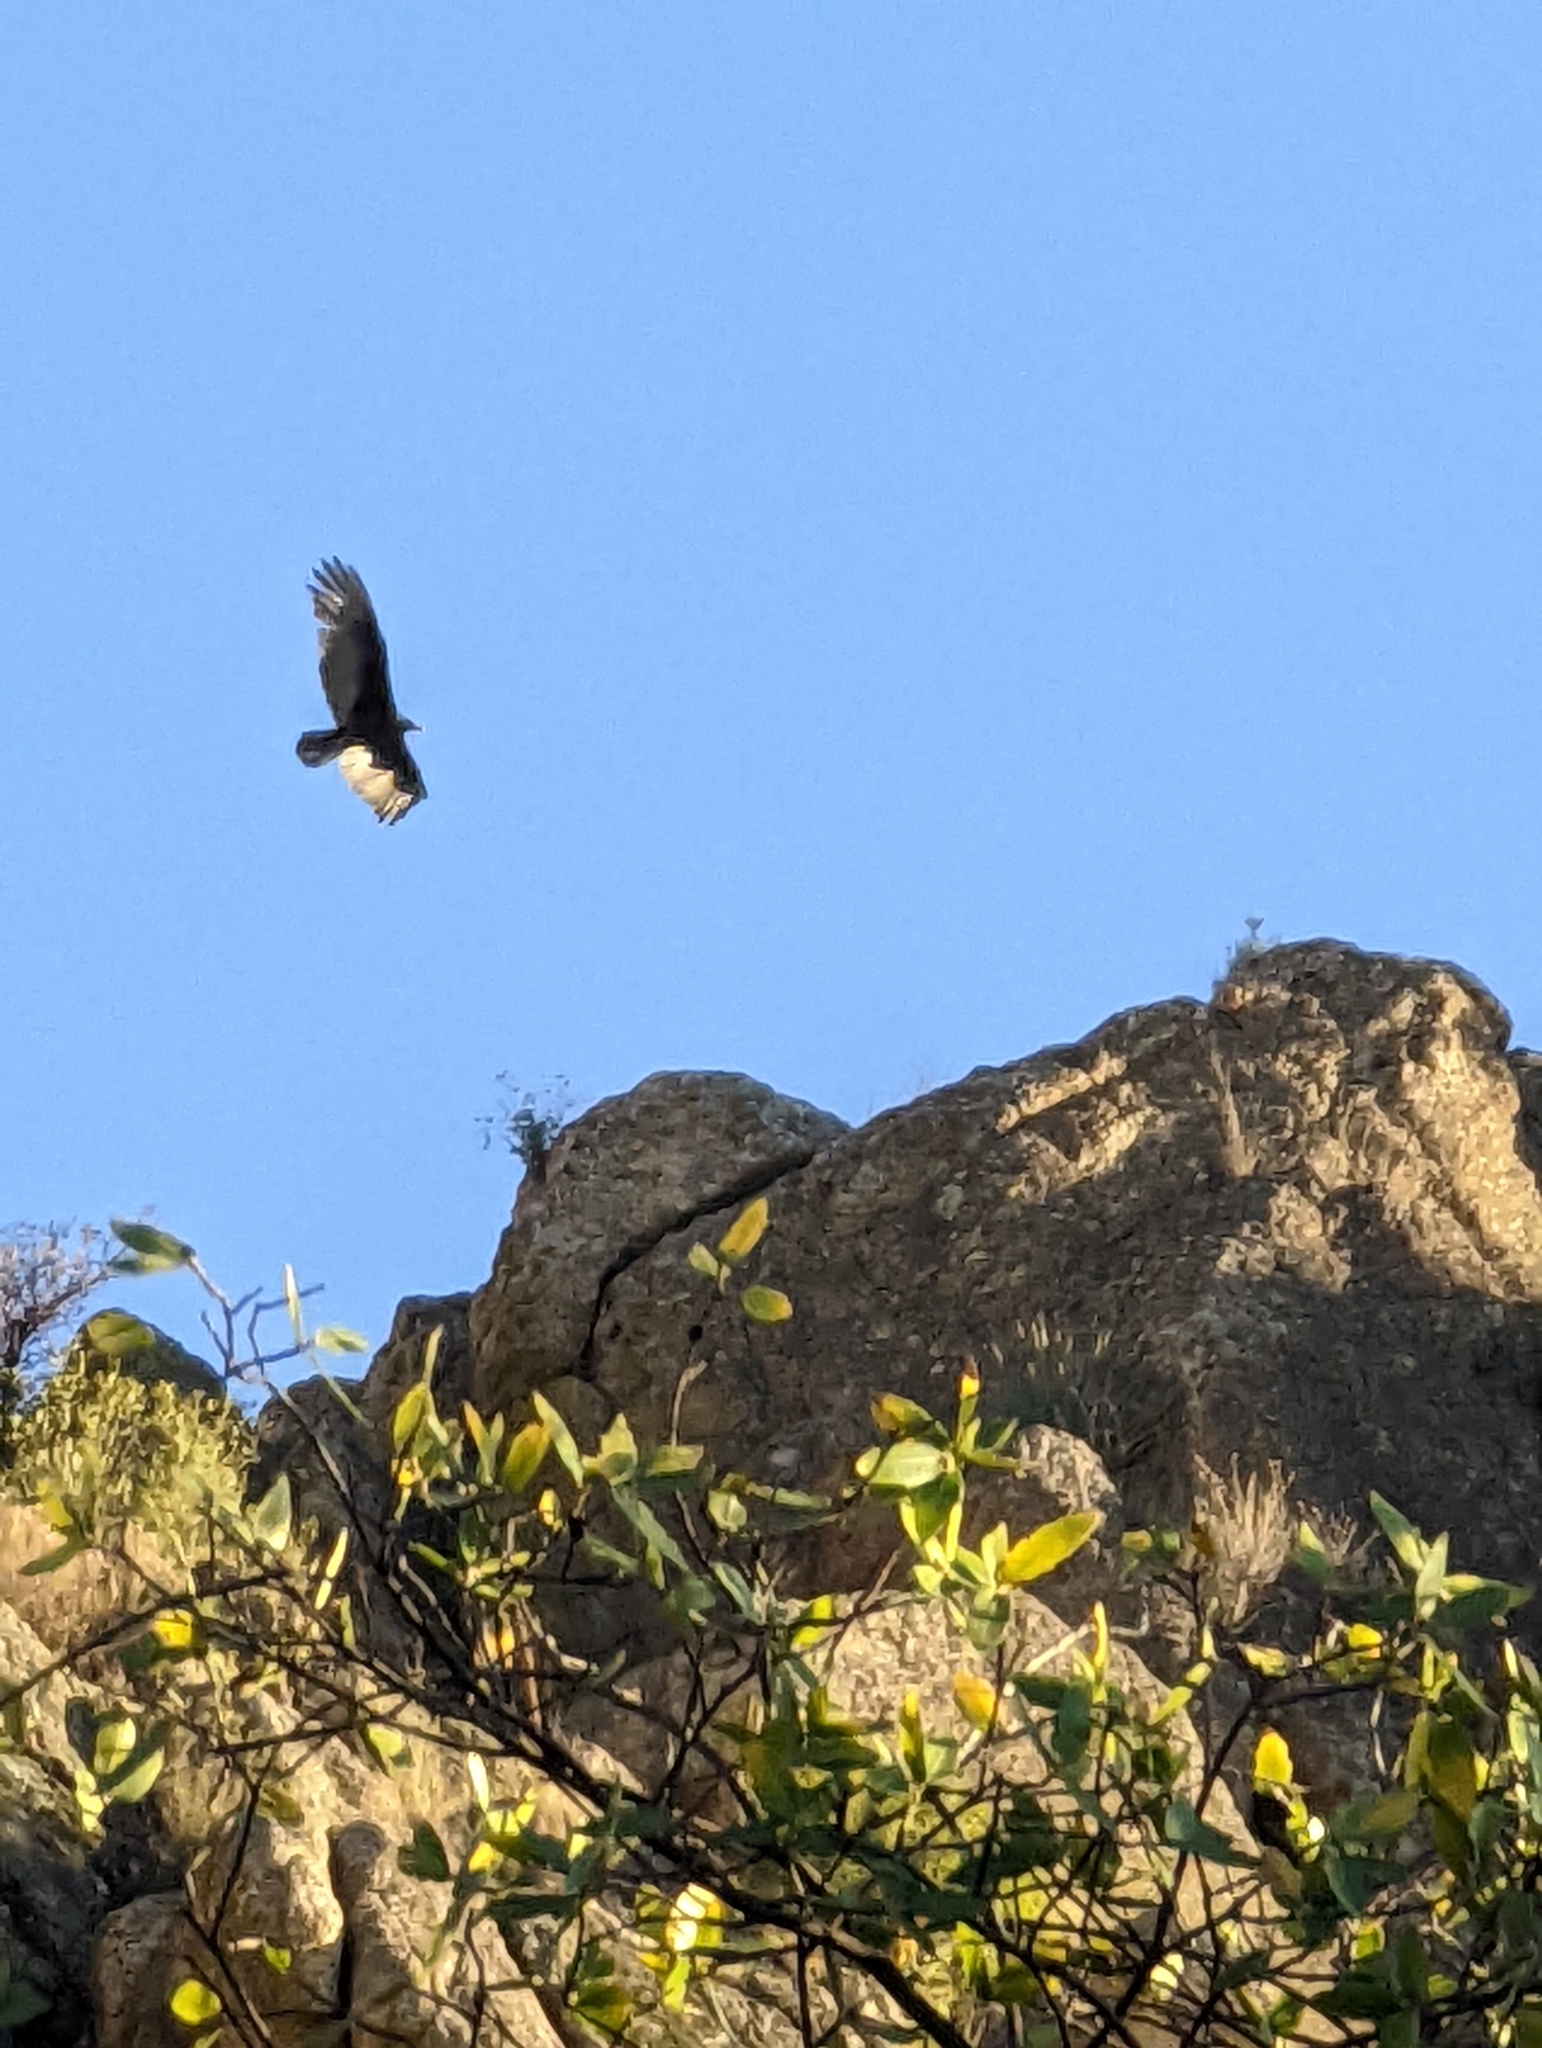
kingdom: Animalia
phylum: Chordata
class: Aves
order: Accipitriformes
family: Cathartidae
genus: Cathartes
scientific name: Cathartes aura
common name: Turkey vulture
